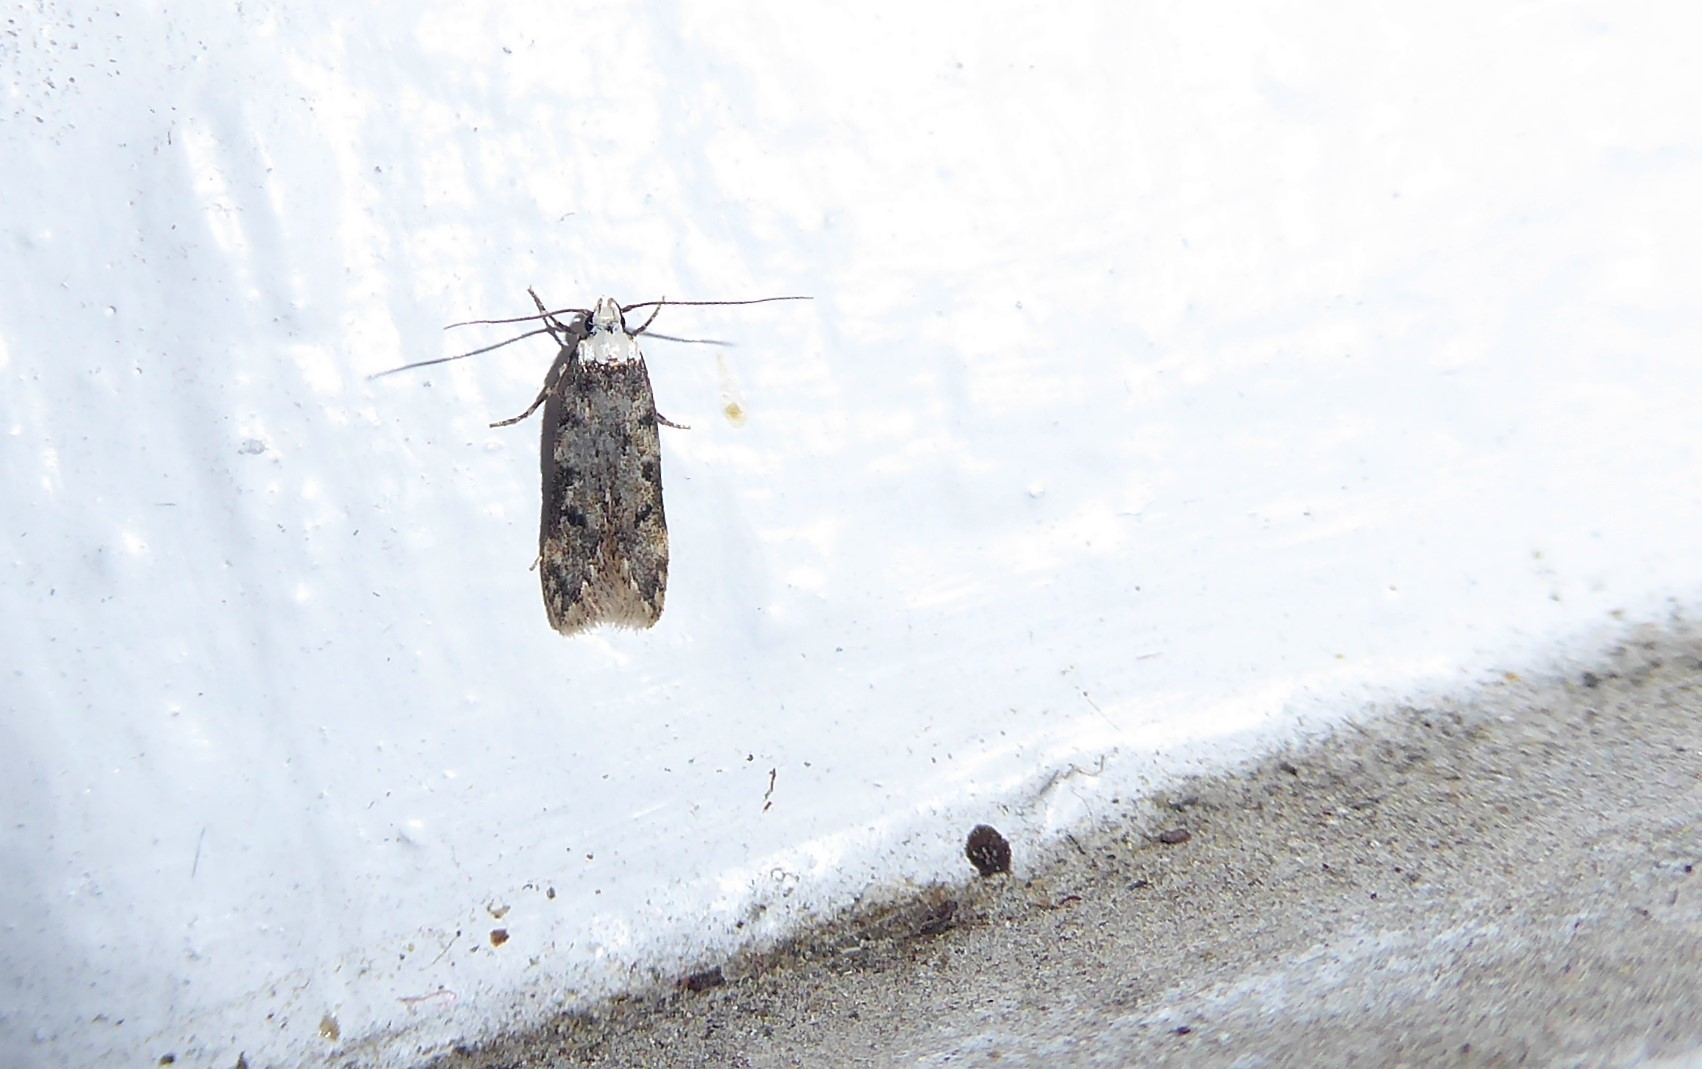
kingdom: Animalia
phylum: Arthropoda
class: Insecta
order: Lepidoptera
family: Oecophoridae
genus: Endrosis
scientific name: Endrosis sarcitrella
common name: White-shouldered house moth
